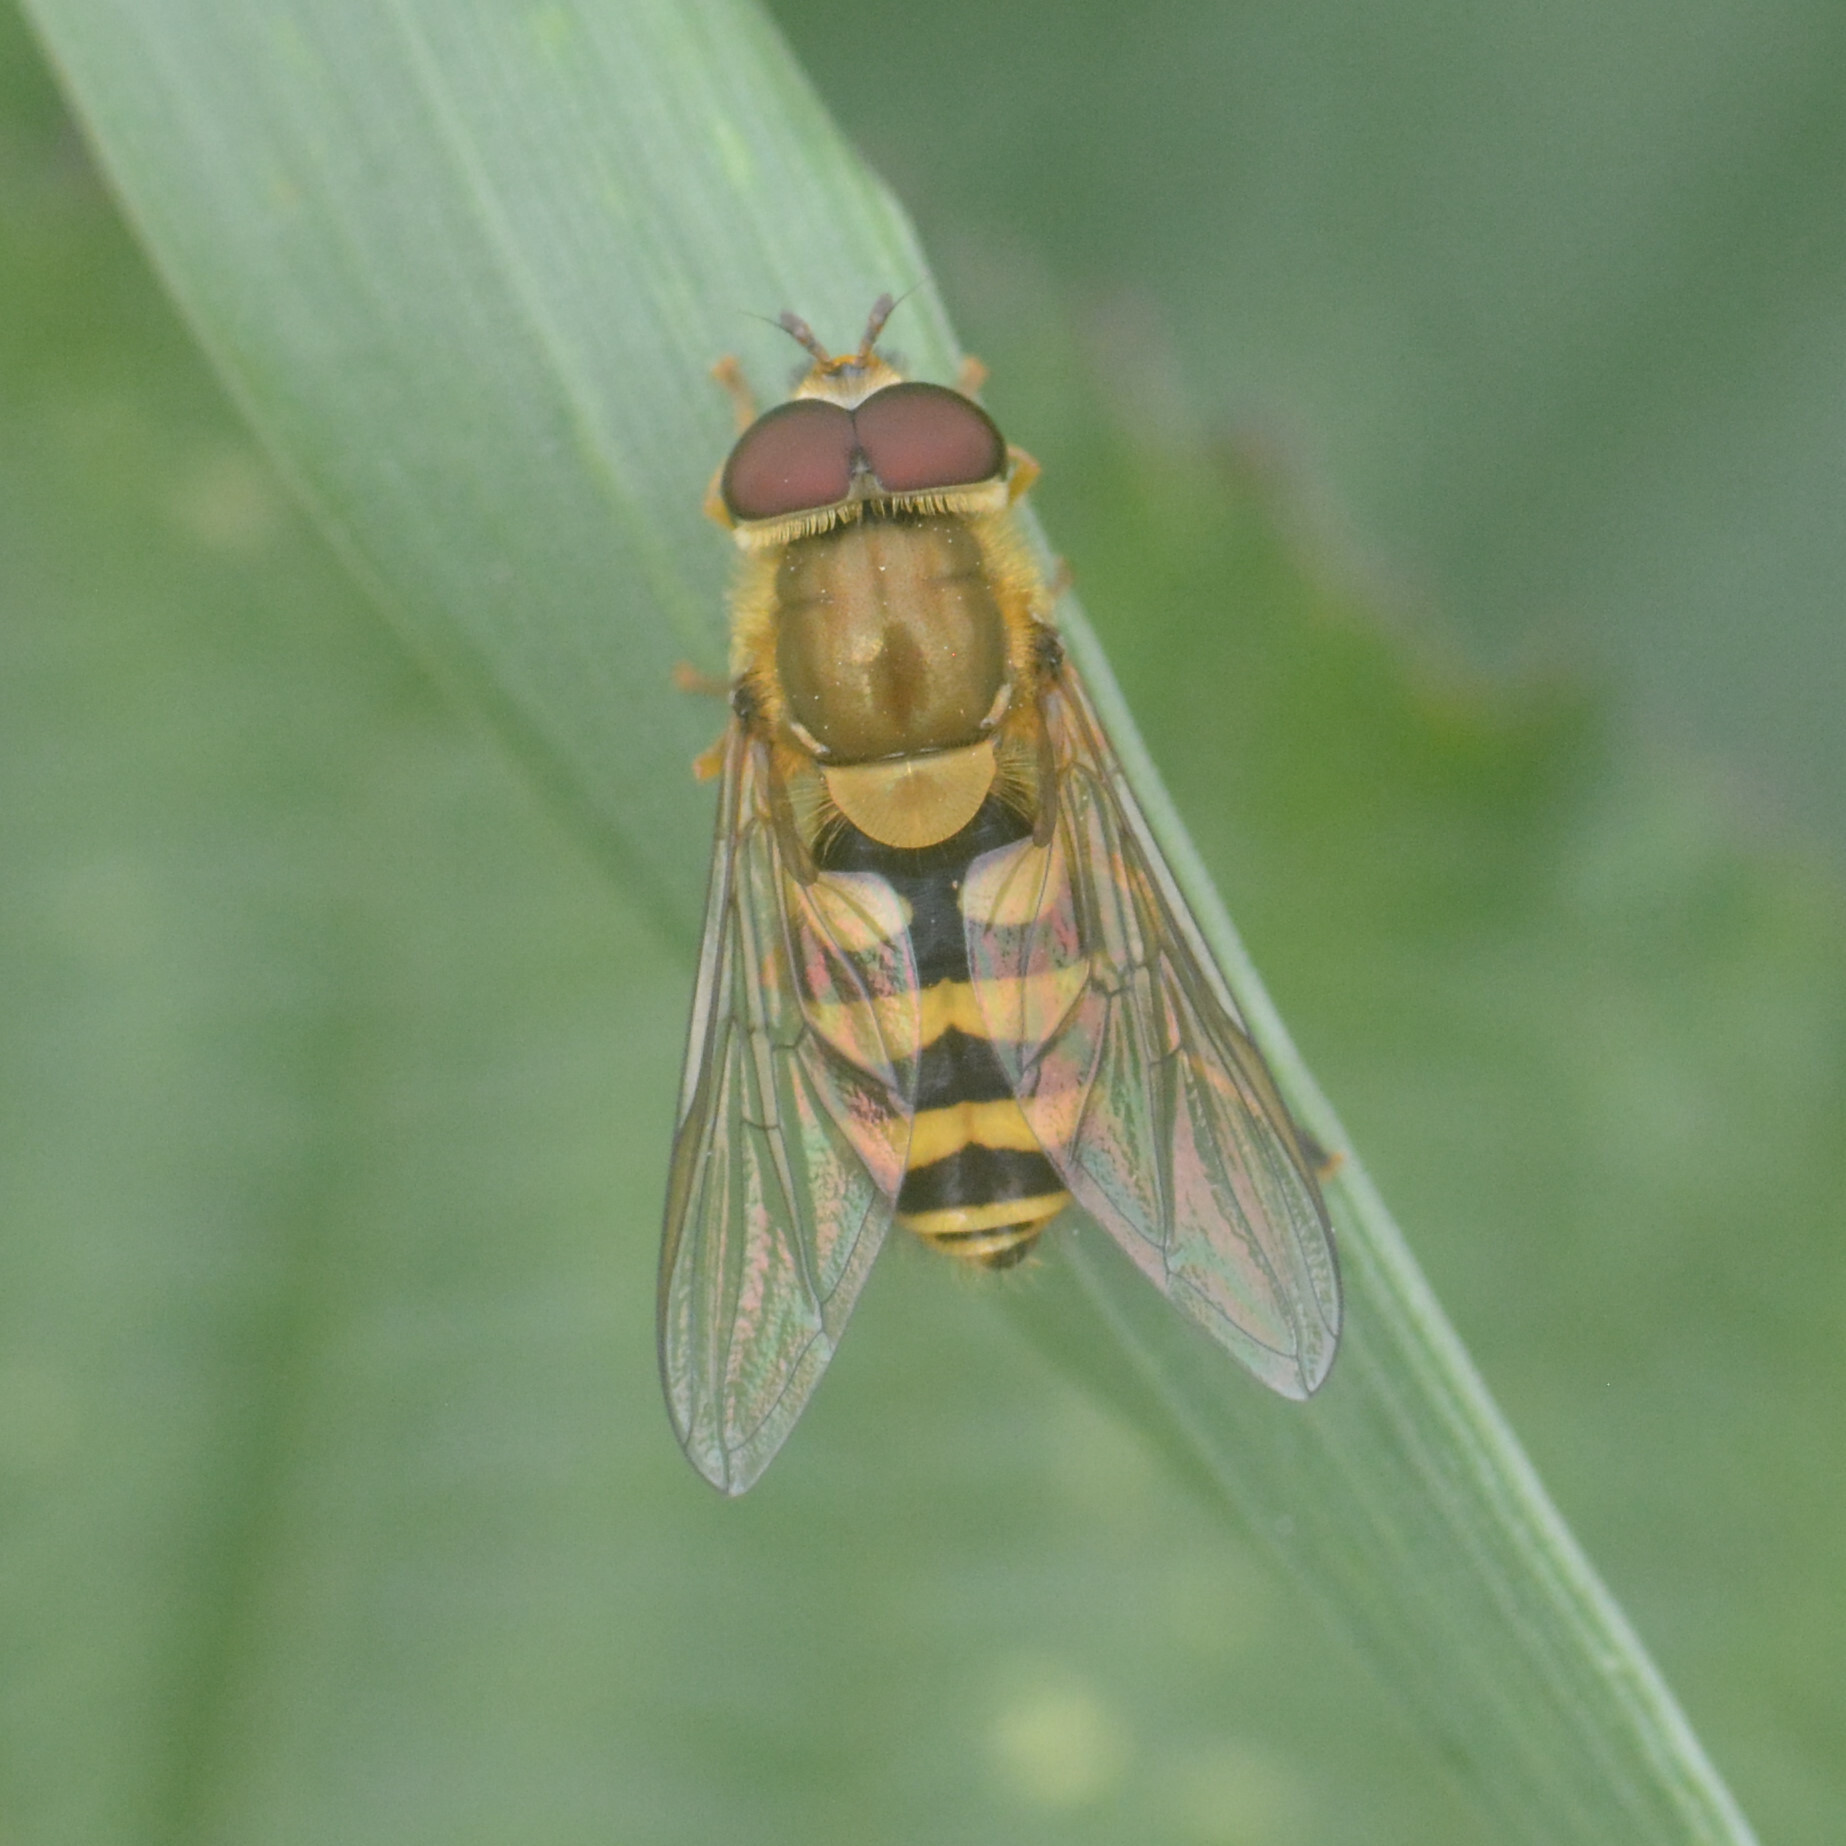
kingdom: Animalia
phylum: Arthropoda
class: Insecta
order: Diptera
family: Syrphidae
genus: Syrphus
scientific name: Syrphus
